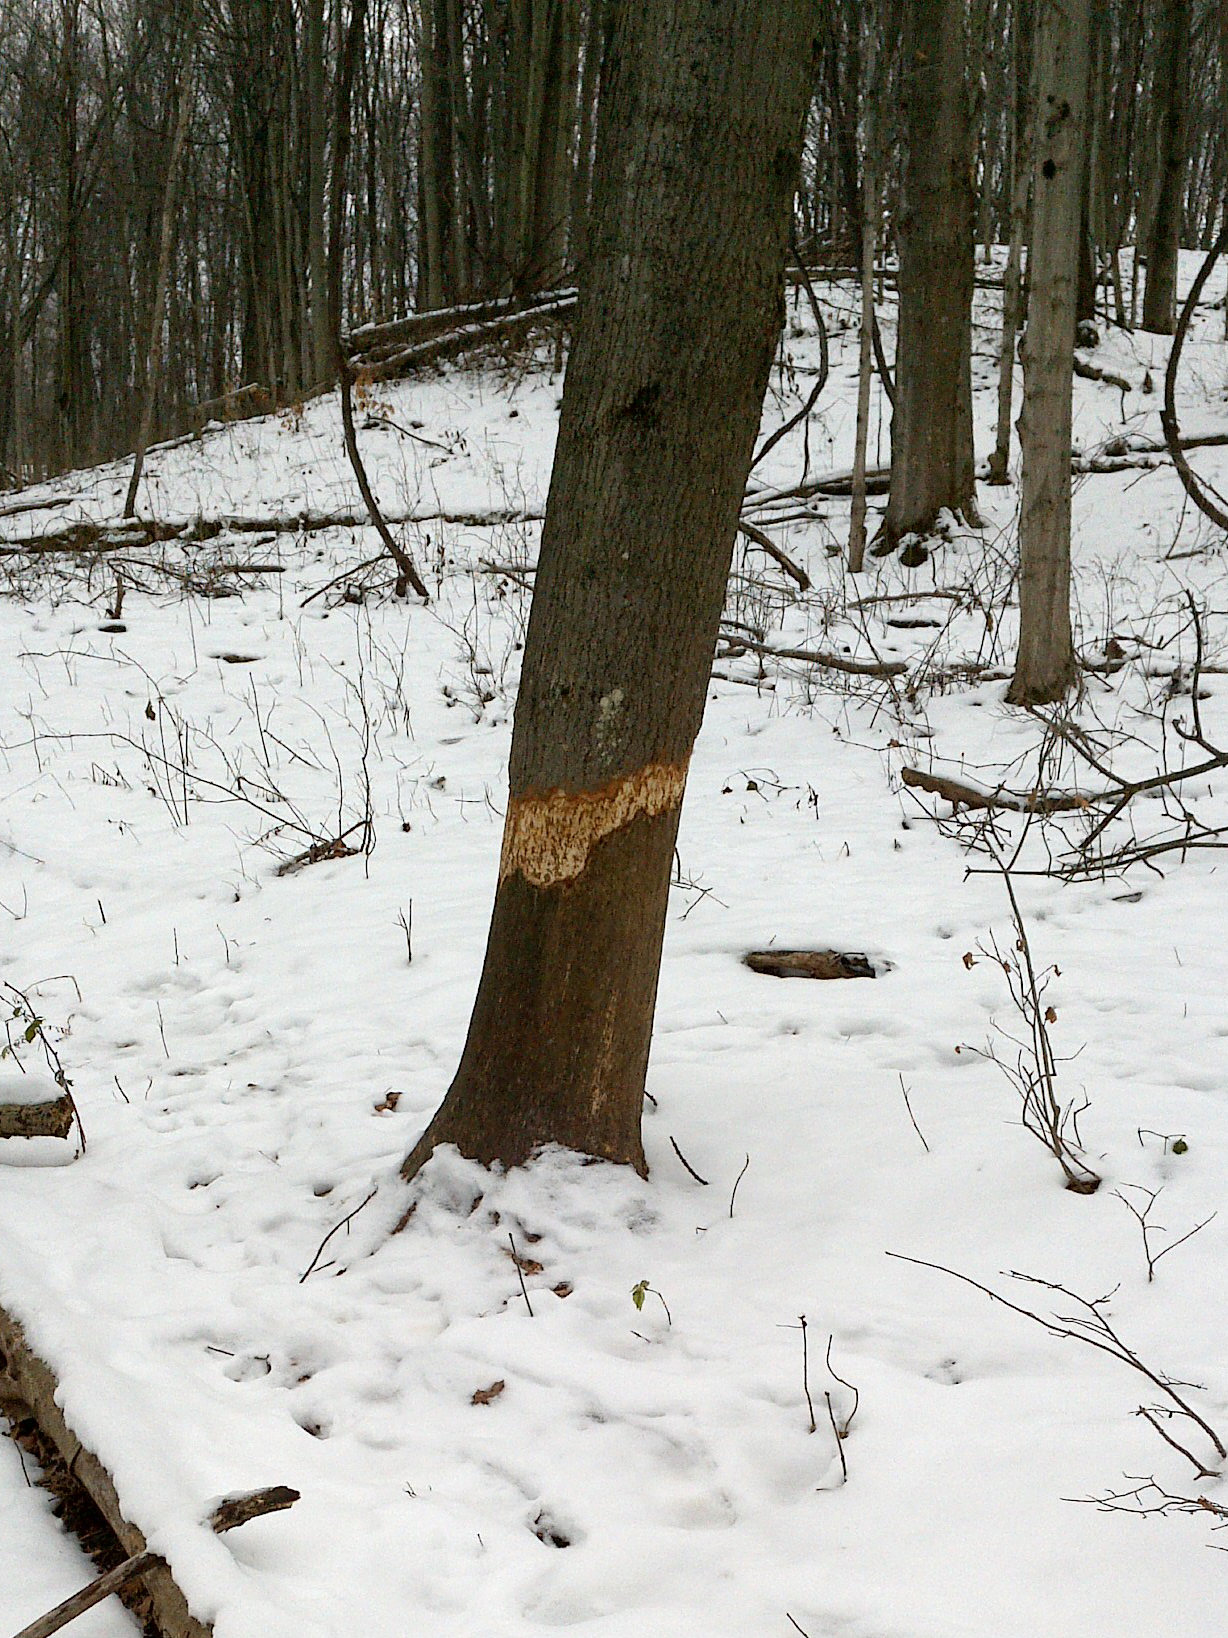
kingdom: Animalia
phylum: Chordata
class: Mammalia
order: Rodentia
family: Castoridae
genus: Castor
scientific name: Castor canadensis
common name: American beaver
